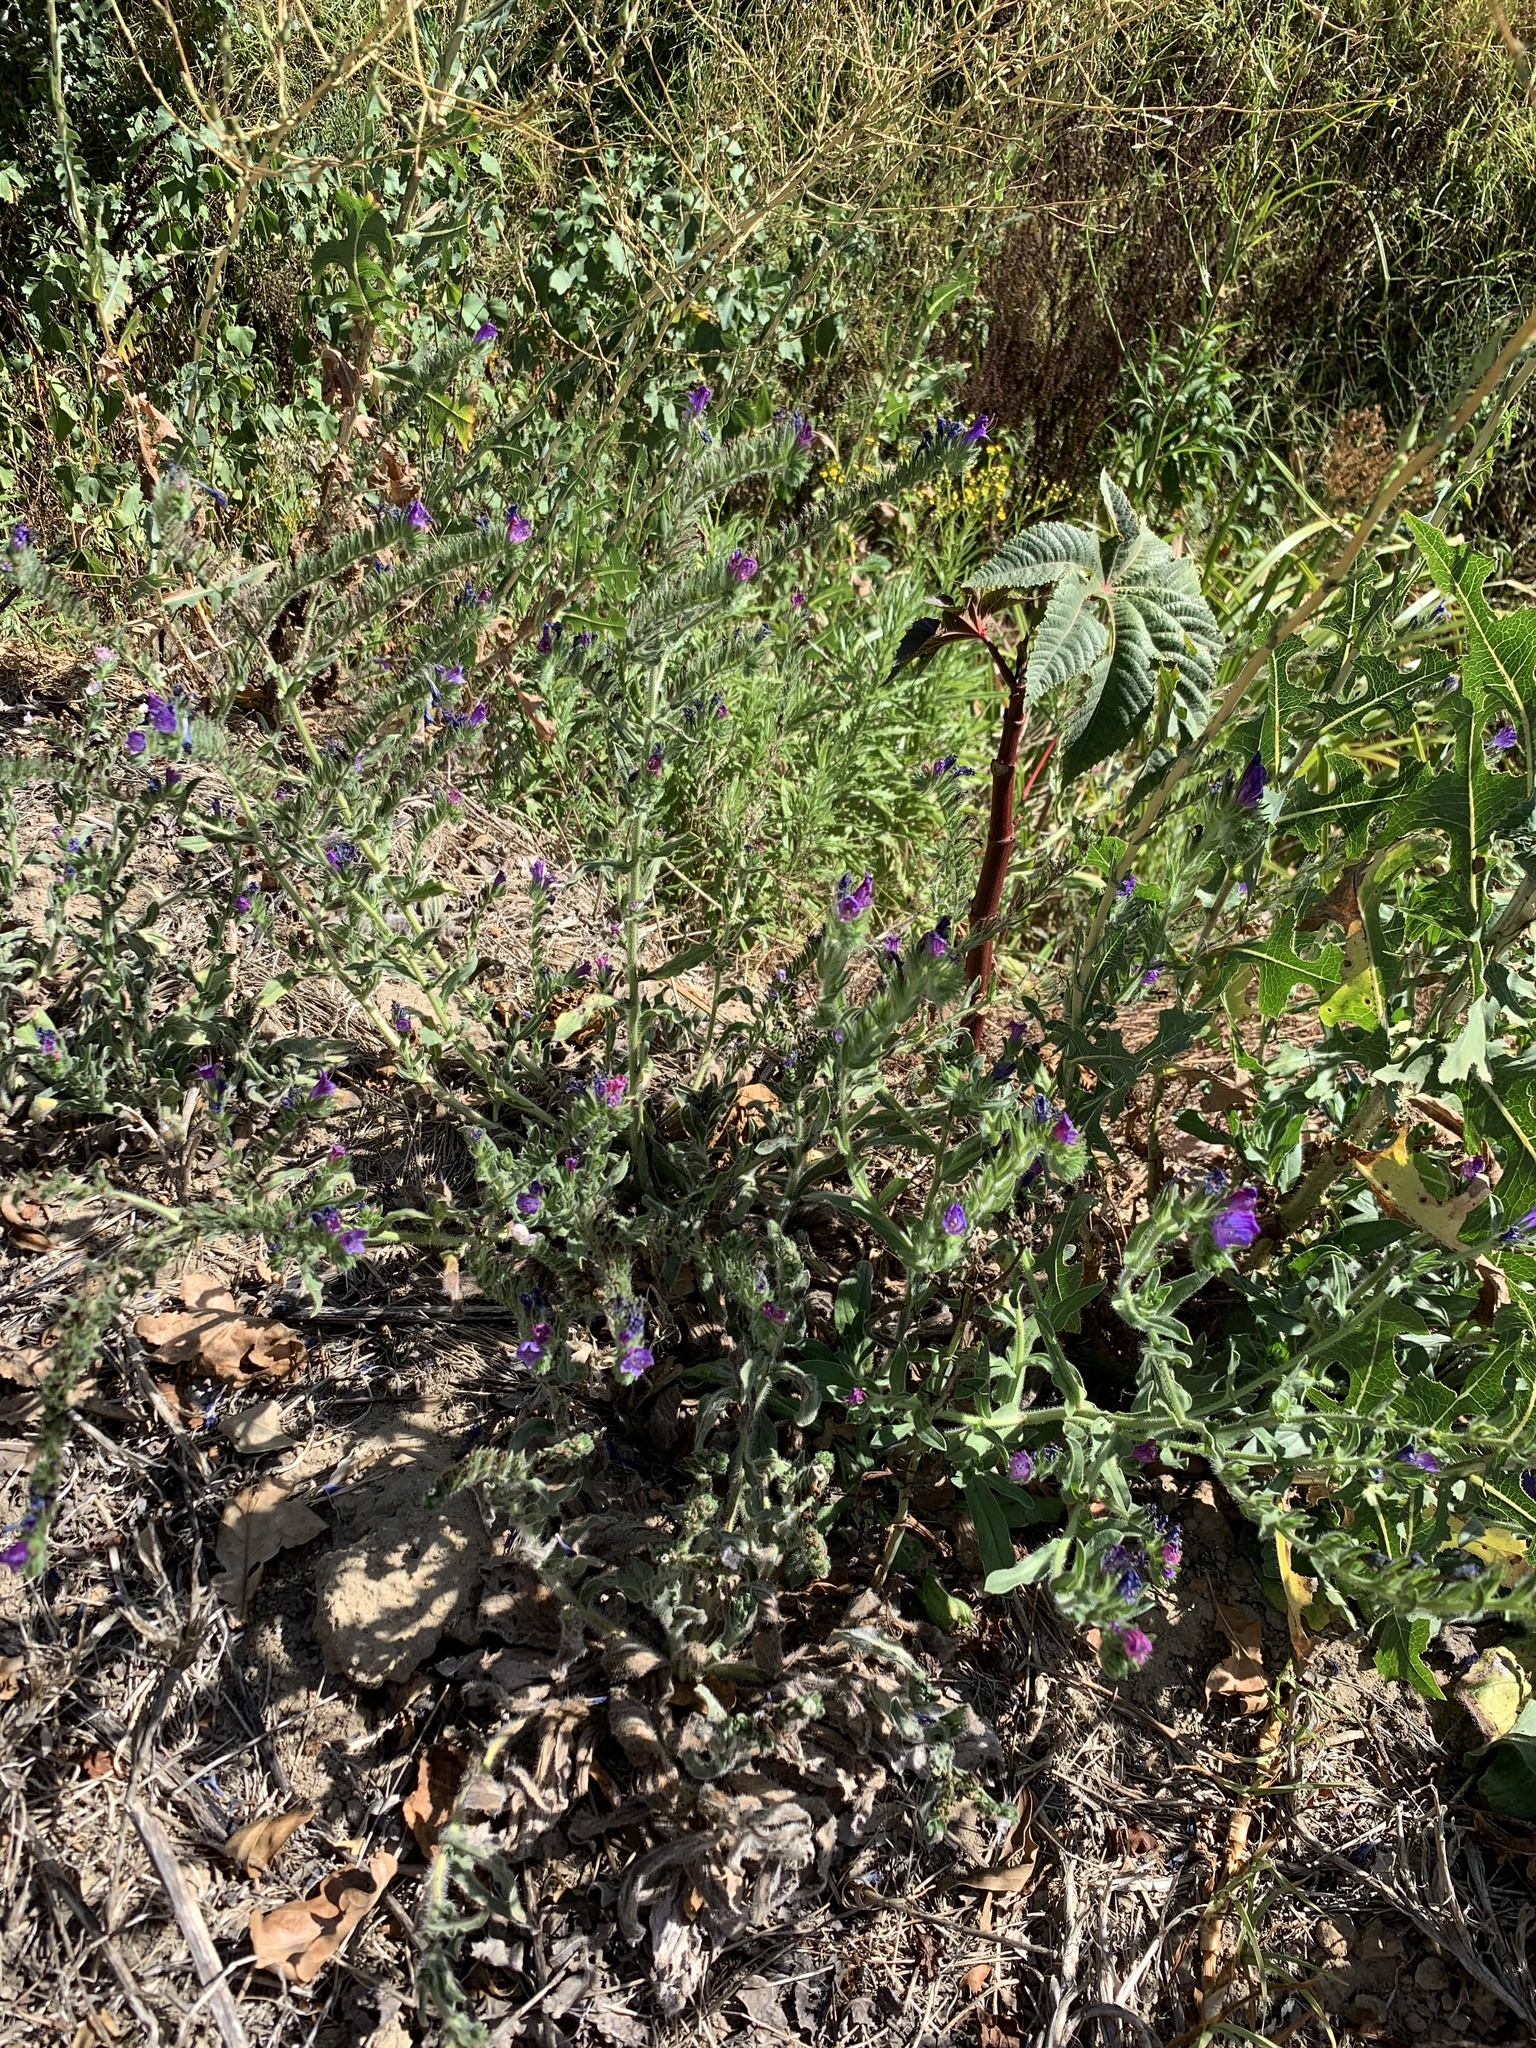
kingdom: Plantae
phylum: Tracheophyta
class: Magnoliopsida
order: Boraginales
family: Boraginaceae
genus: Echium
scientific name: Echium plantagineum
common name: Purple viper's-bugloss
